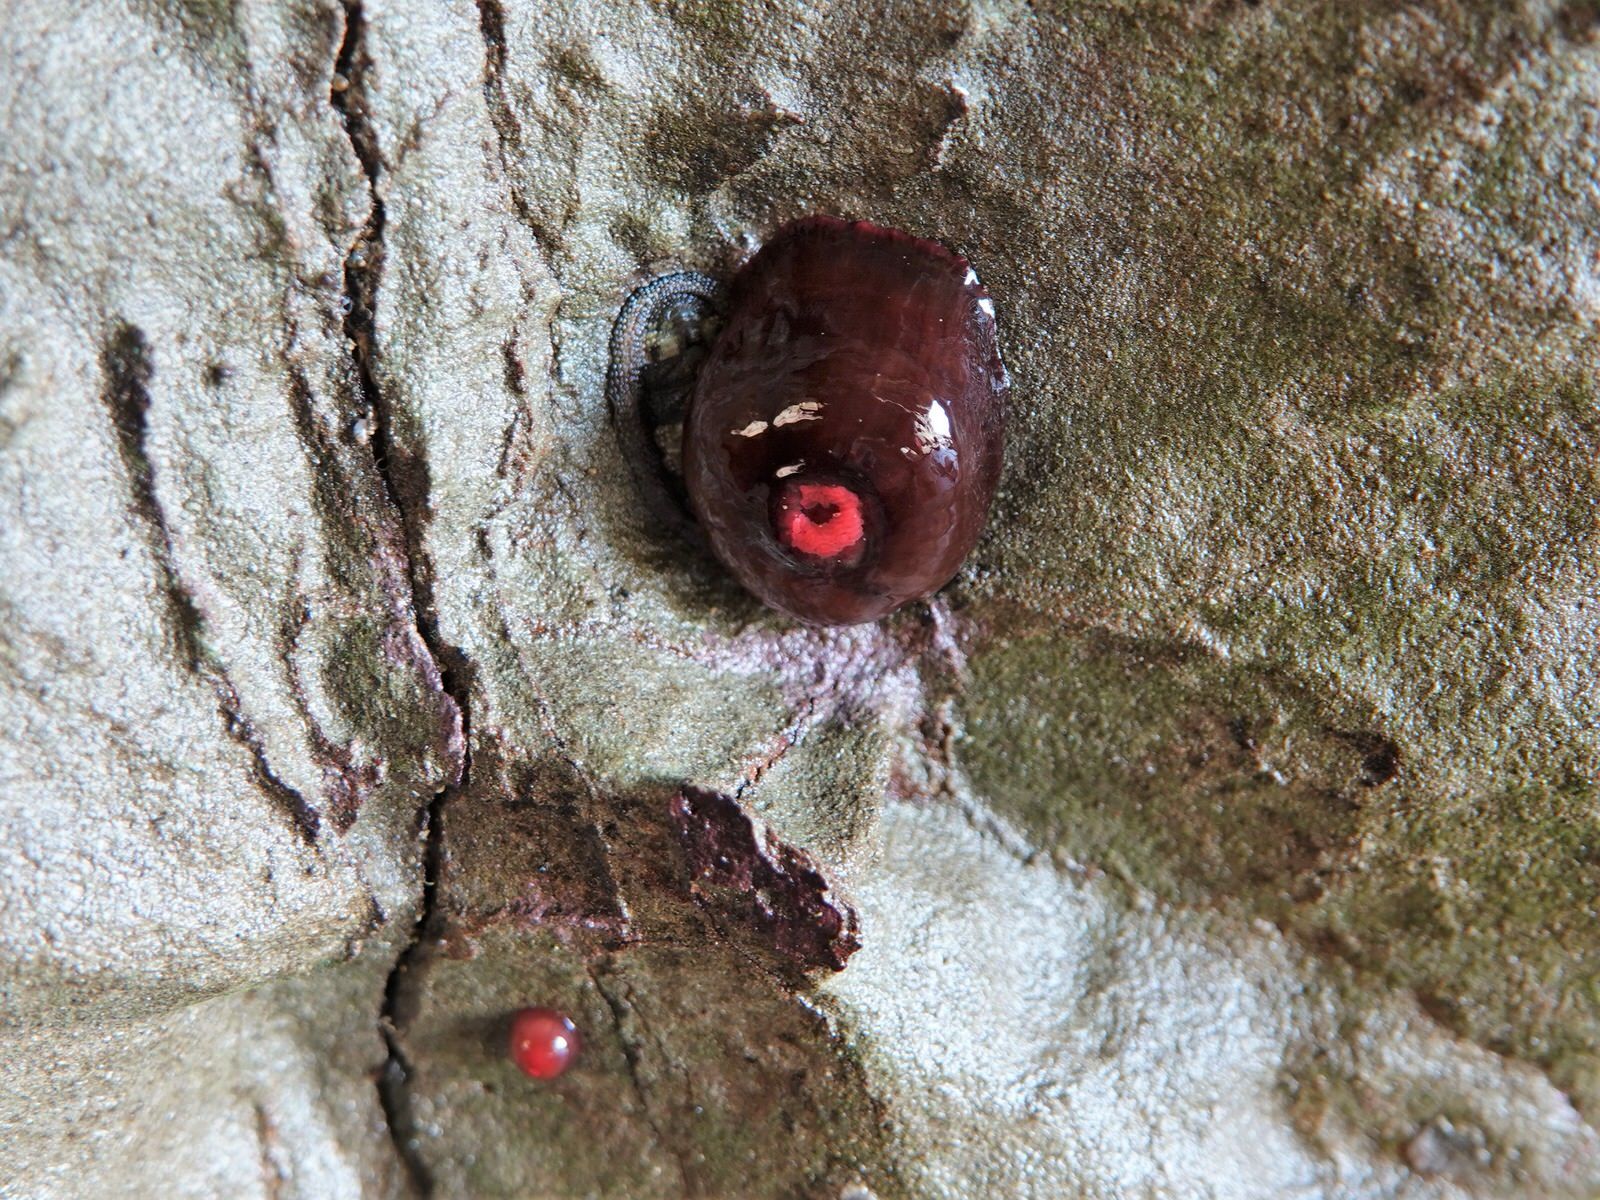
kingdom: Animalia
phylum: Cnidaria
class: Anthozoa
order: Actiniaria
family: Actiniidae
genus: Actinia
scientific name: Actinia tenebrosa
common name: Waratah anemone
